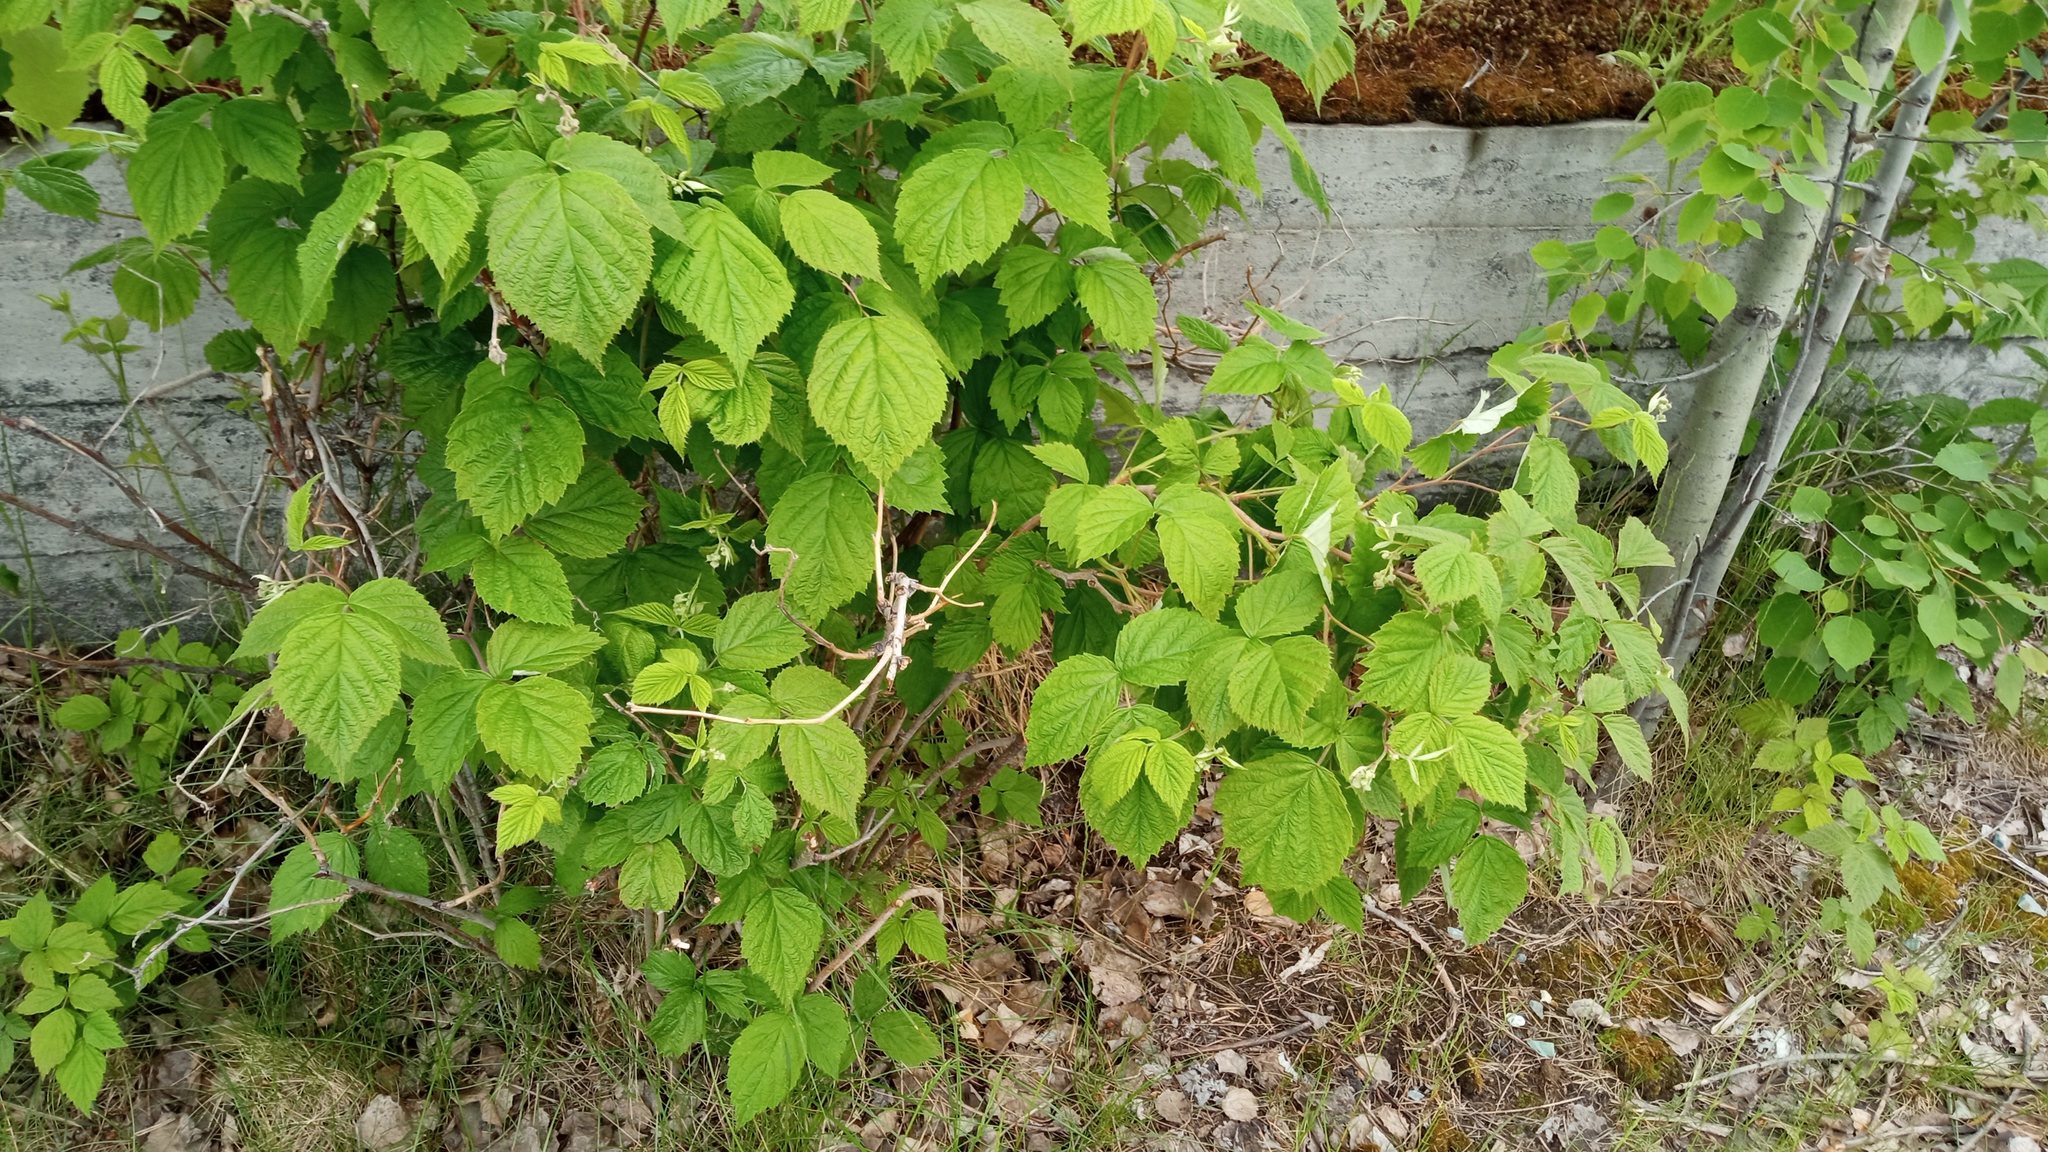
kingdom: Plantae
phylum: Tracheophyta
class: Magnoliopsida
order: Rosales
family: Rosaceae
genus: Rubus
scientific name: Rubus idaeus
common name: Raspberry
